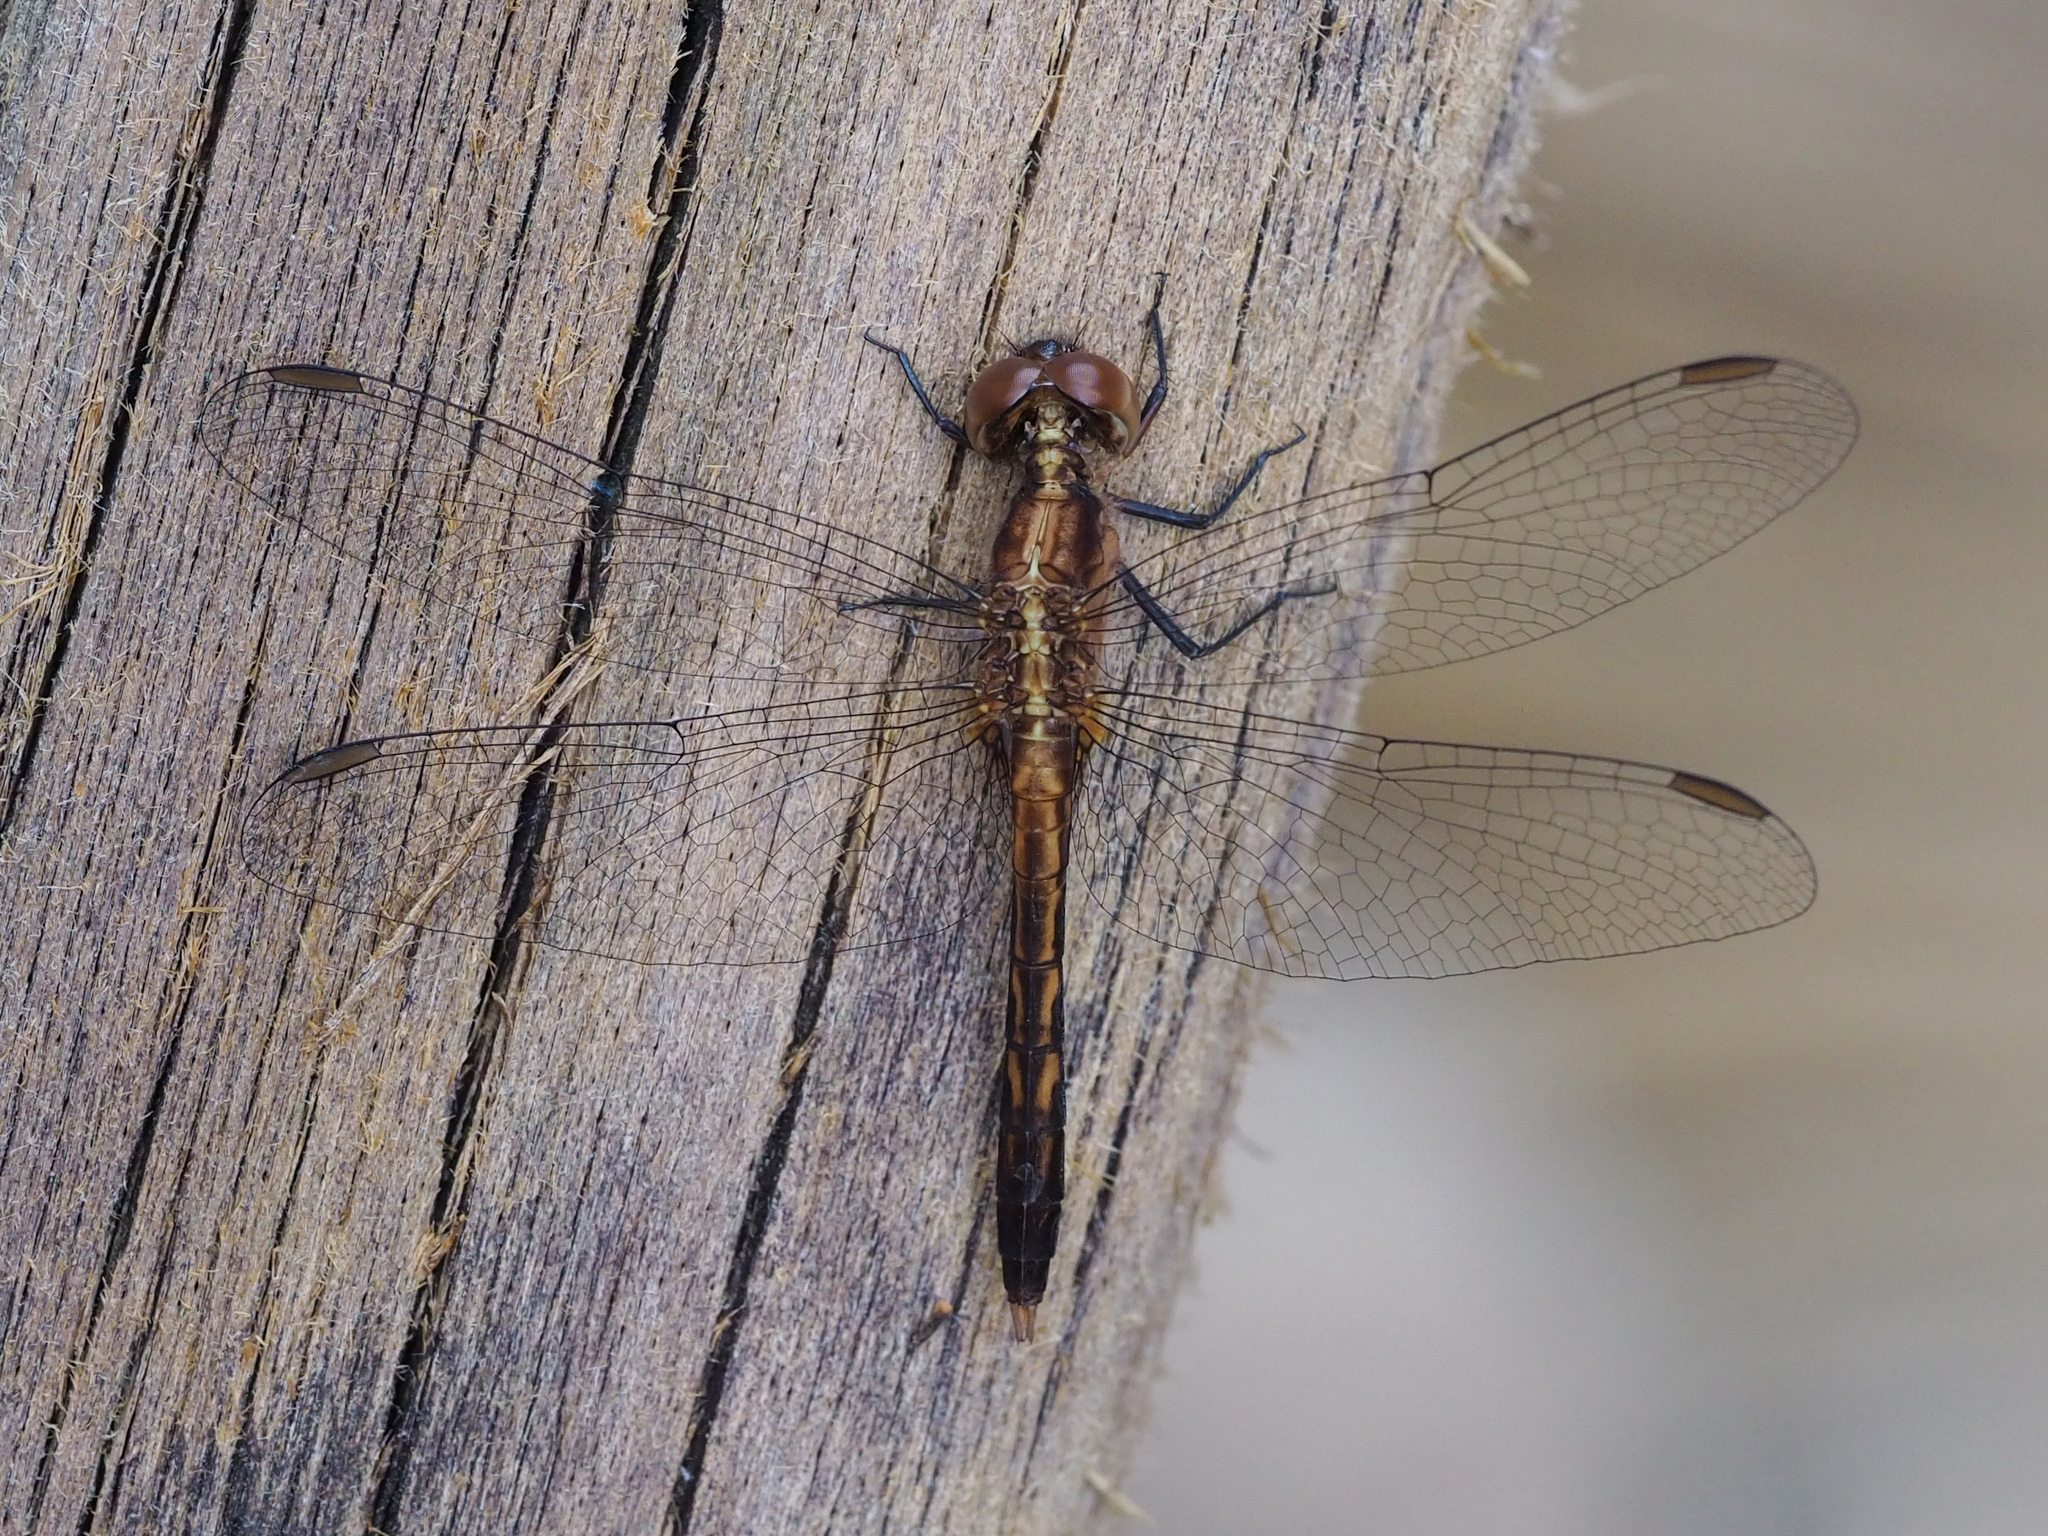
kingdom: Animalia
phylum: Arthropoda
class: Insecta
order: Odonata
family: Libellulidae
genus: Erythrodiplax
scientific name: Erythrodiplax minuscula
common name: Little blue dragonlet
